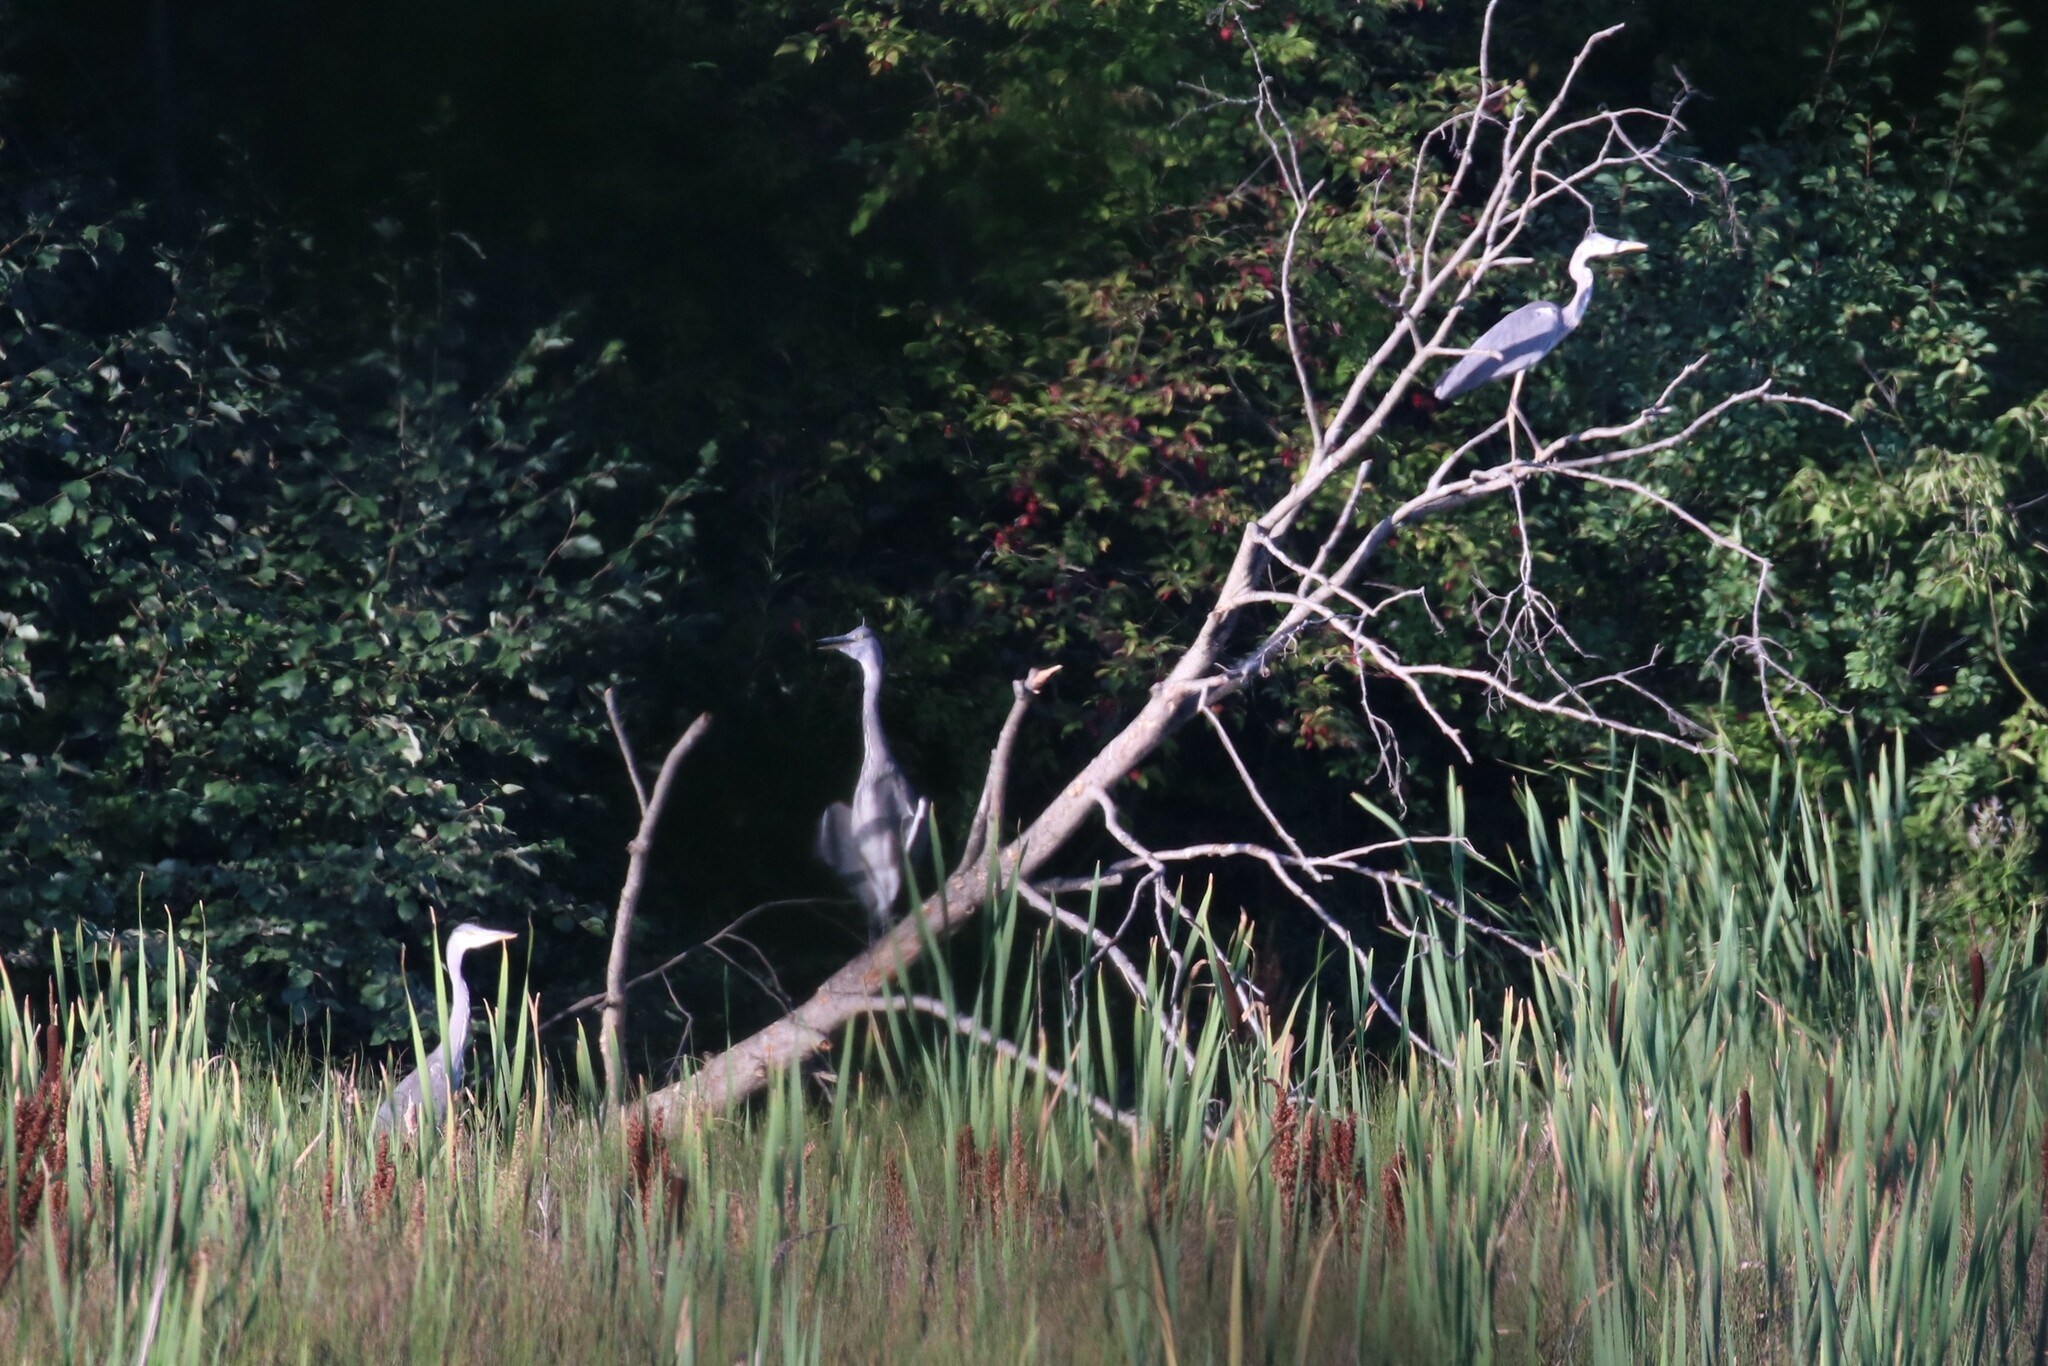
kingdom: Animalia
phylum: Chordata
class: Aves
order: Pelecaniformes
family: Ardeidae
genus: Ardea
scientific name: Ardea cinerea
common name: Grey heron
